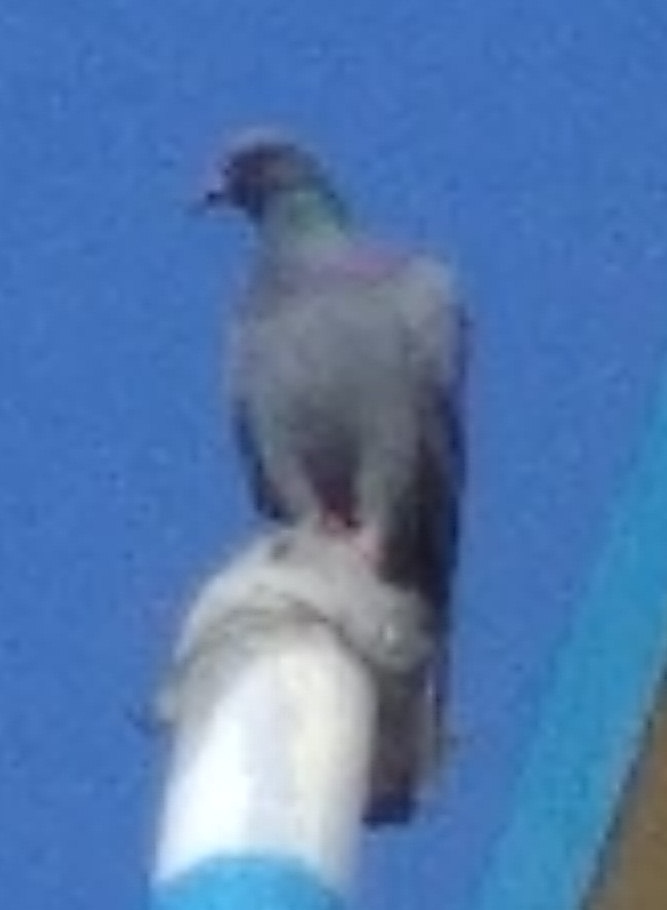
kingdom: Animalia
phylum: Chordata
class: Aves
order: Columbiformes
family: Columbidae
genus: Columba
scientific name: Columba livia
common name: Rock pigeon
